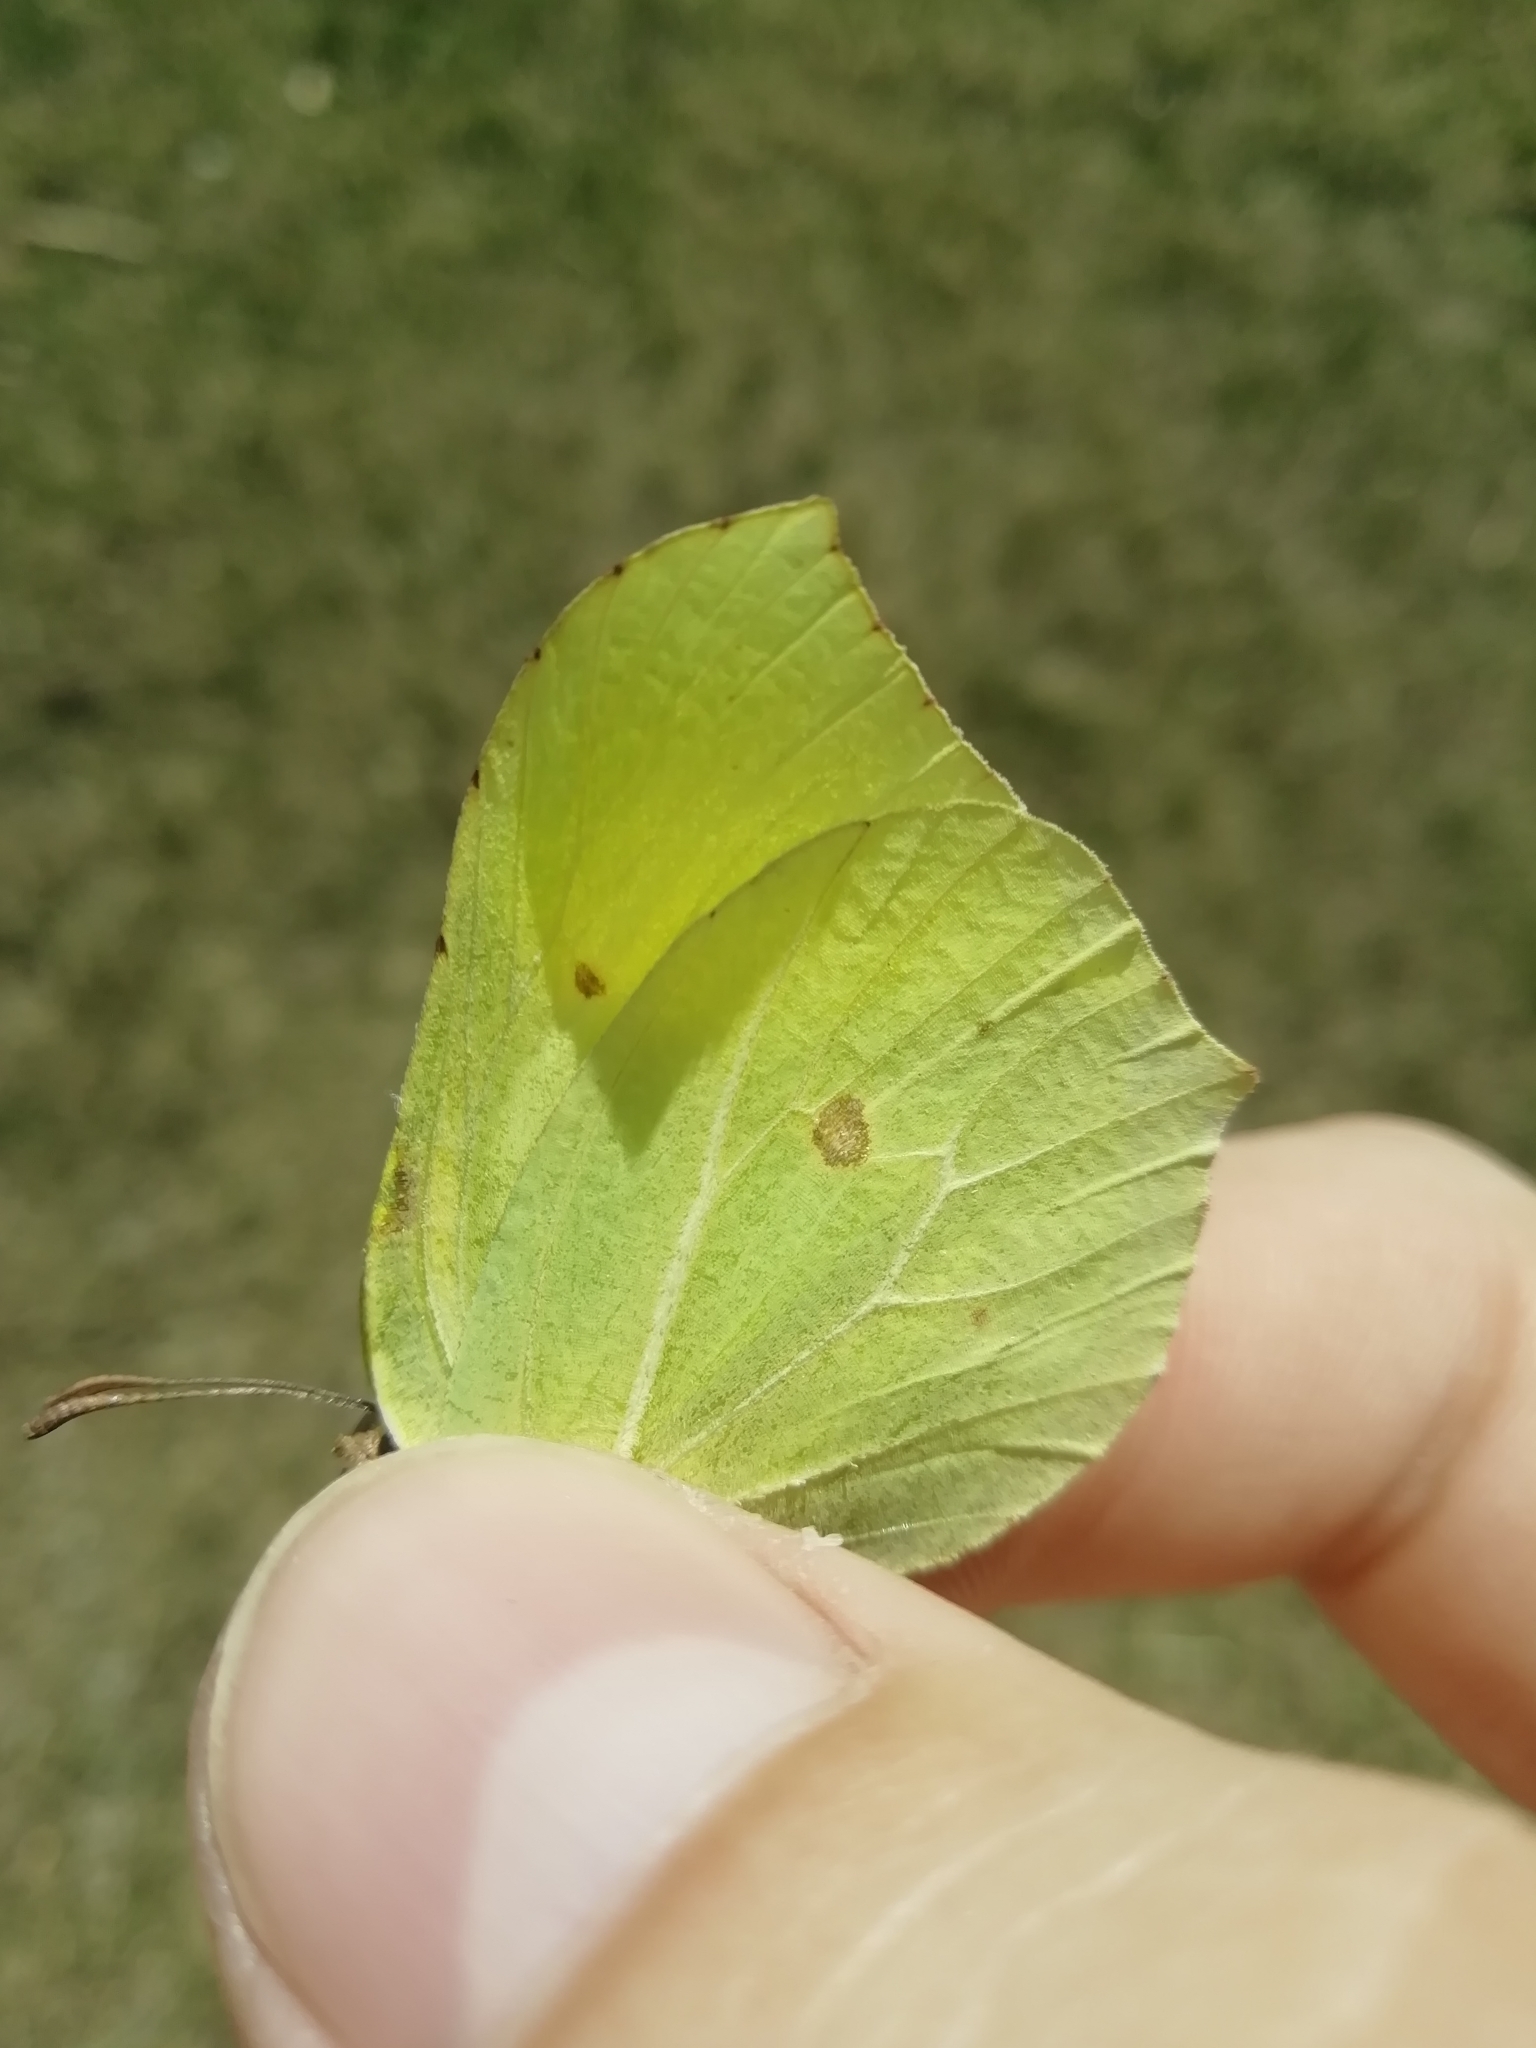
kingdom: Animalia
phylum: Arthropoda
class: Insecta
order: Lepidoptera
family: Pieridae
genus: Gonepteryx
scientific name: Gonepteryx rhamni
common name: Brimstone
